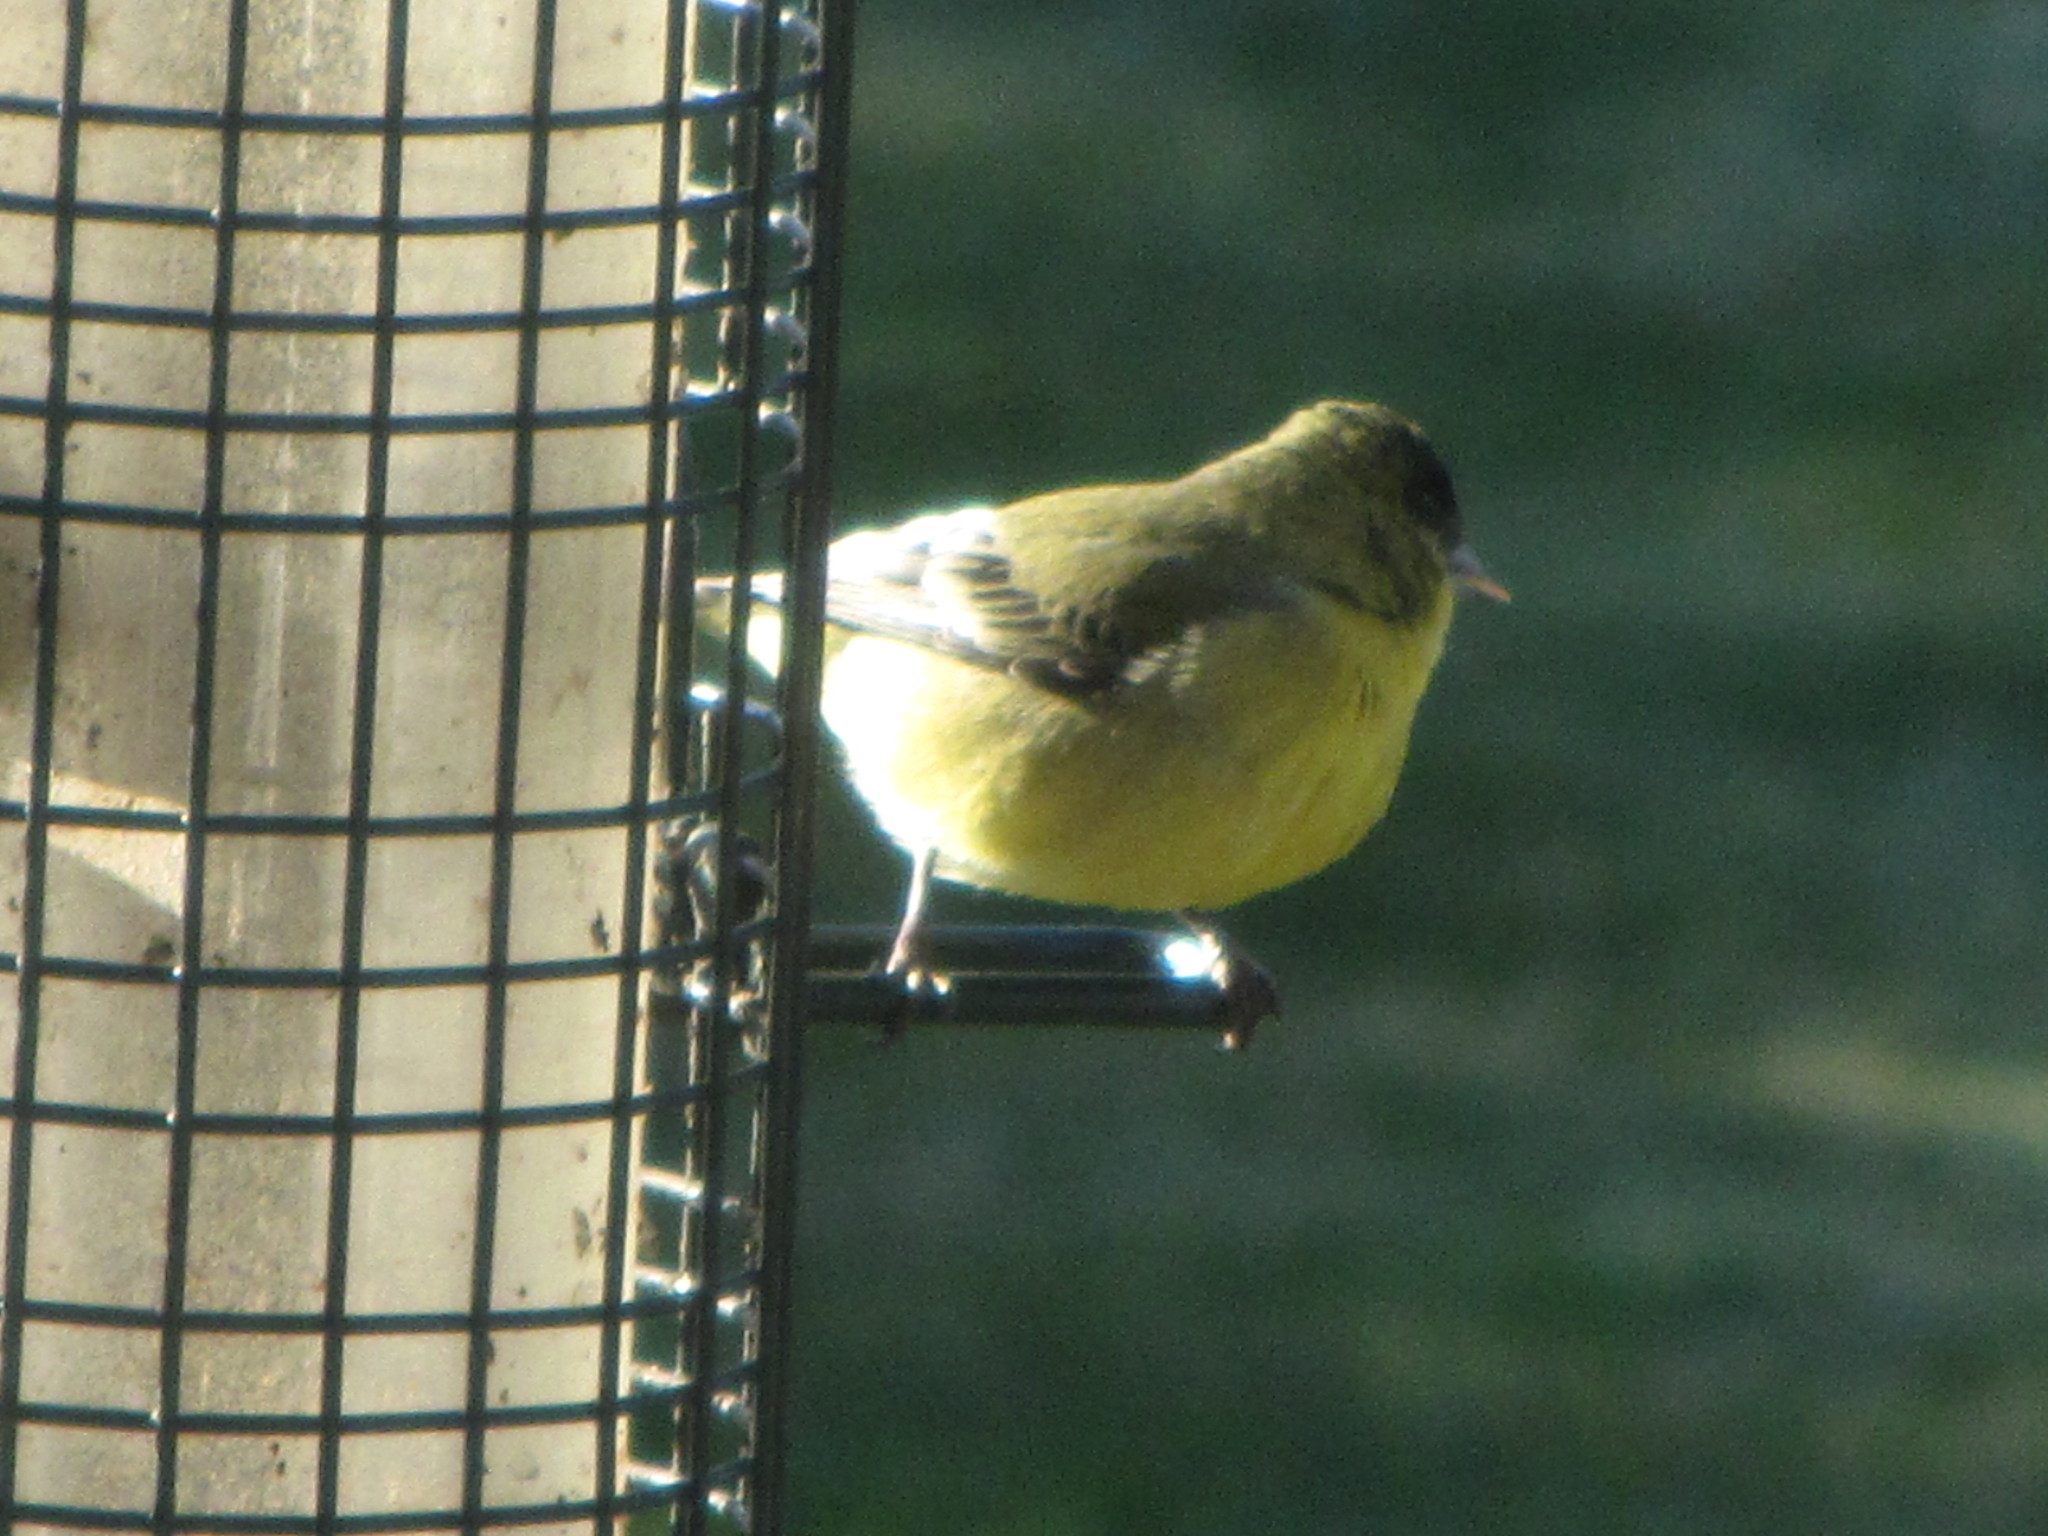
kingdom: Animalia
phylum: Chordata
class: Aves
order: Passeriformes
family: Fringillidae
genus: Spinus
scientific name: Spinus psaltria
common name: Lesser goldfinch
